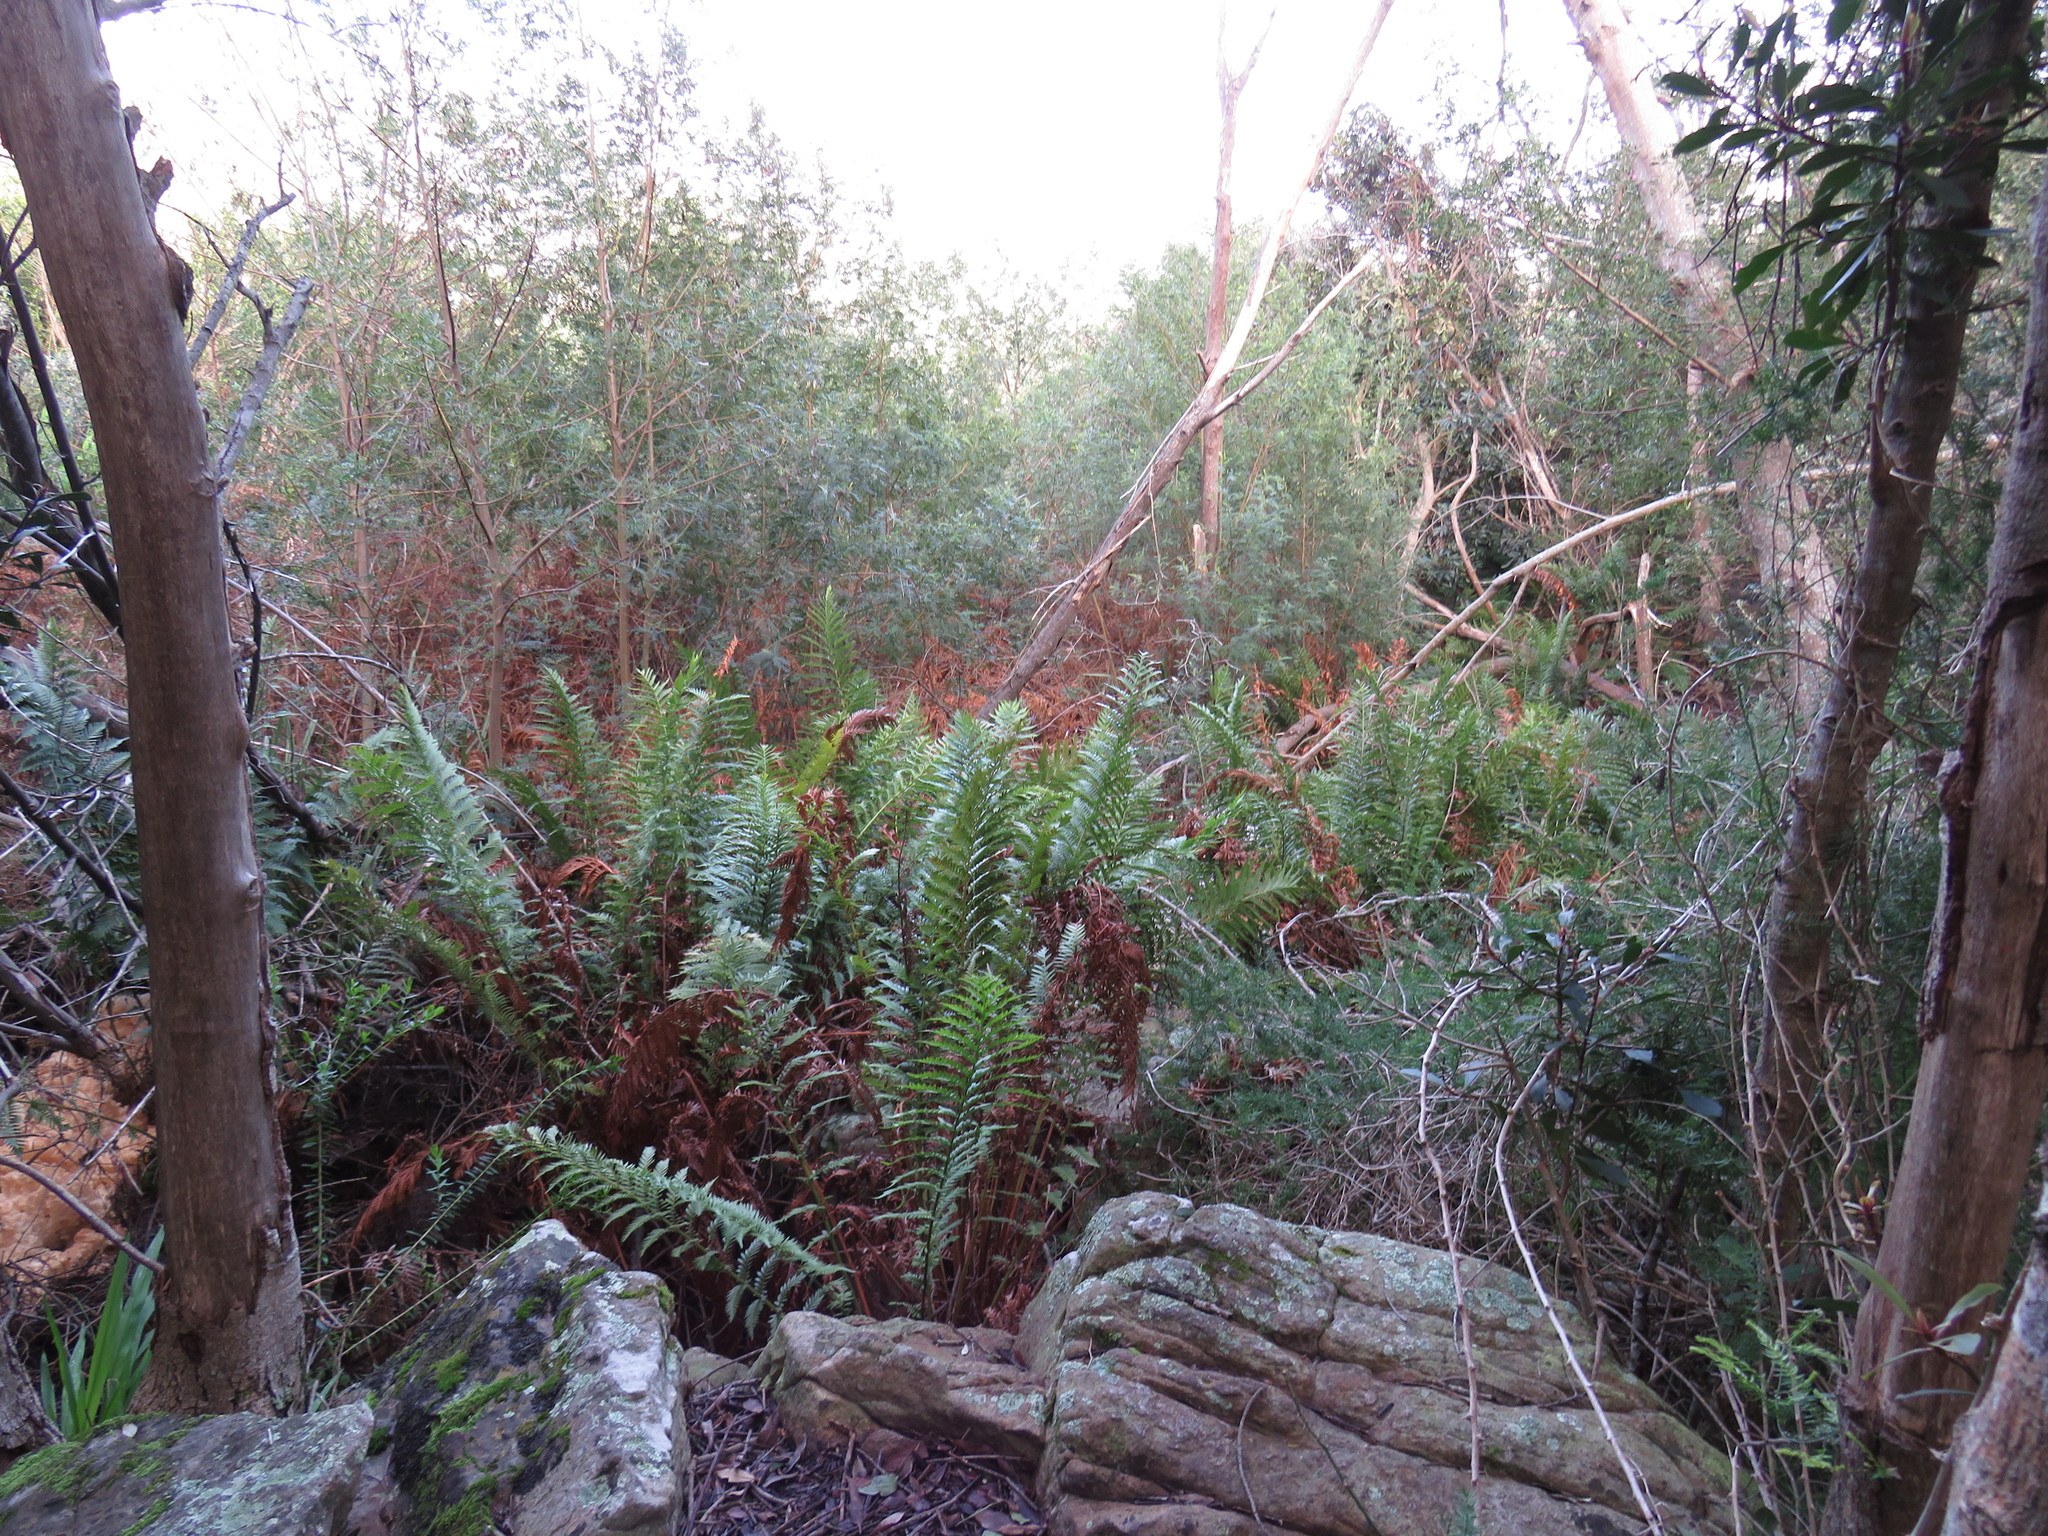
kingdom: Plantae
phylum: Tracheophyta
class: Polypodiopsida
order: Osmundales
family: Osmundaceae
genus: Todea
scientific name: Todea barbara
